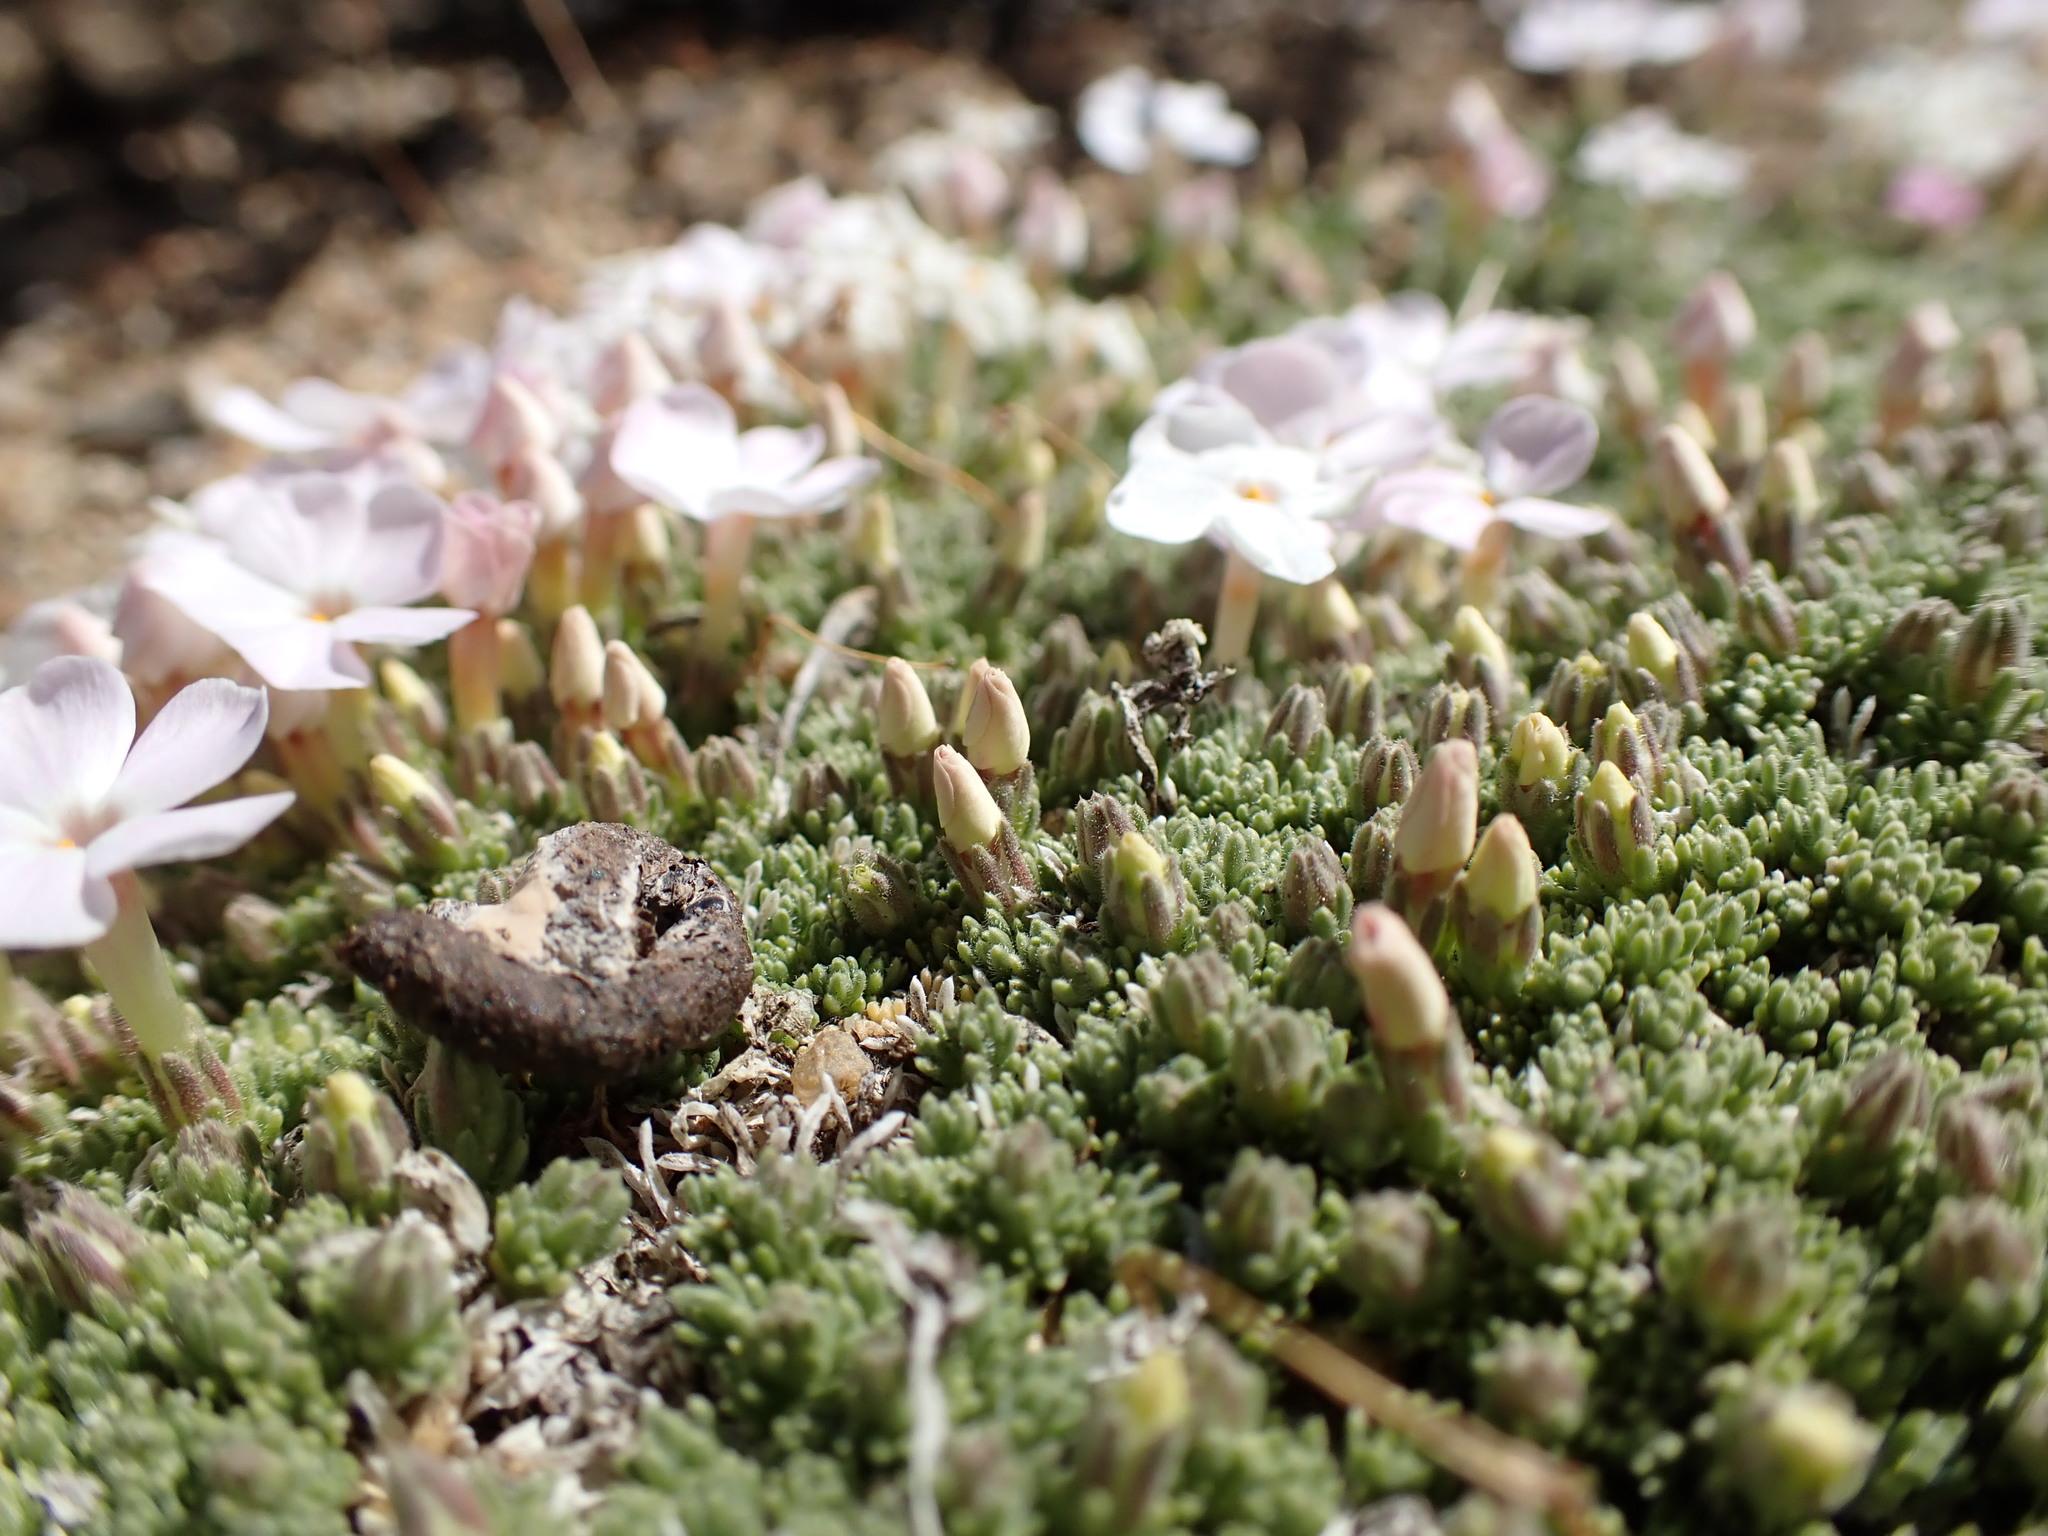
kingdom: Plantae
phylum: Tracheophyta
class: Magnoliopsida
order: Ericales
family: Polemoniaceae
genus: Phlox
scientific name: Phlox condensata
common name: Compact phlox
